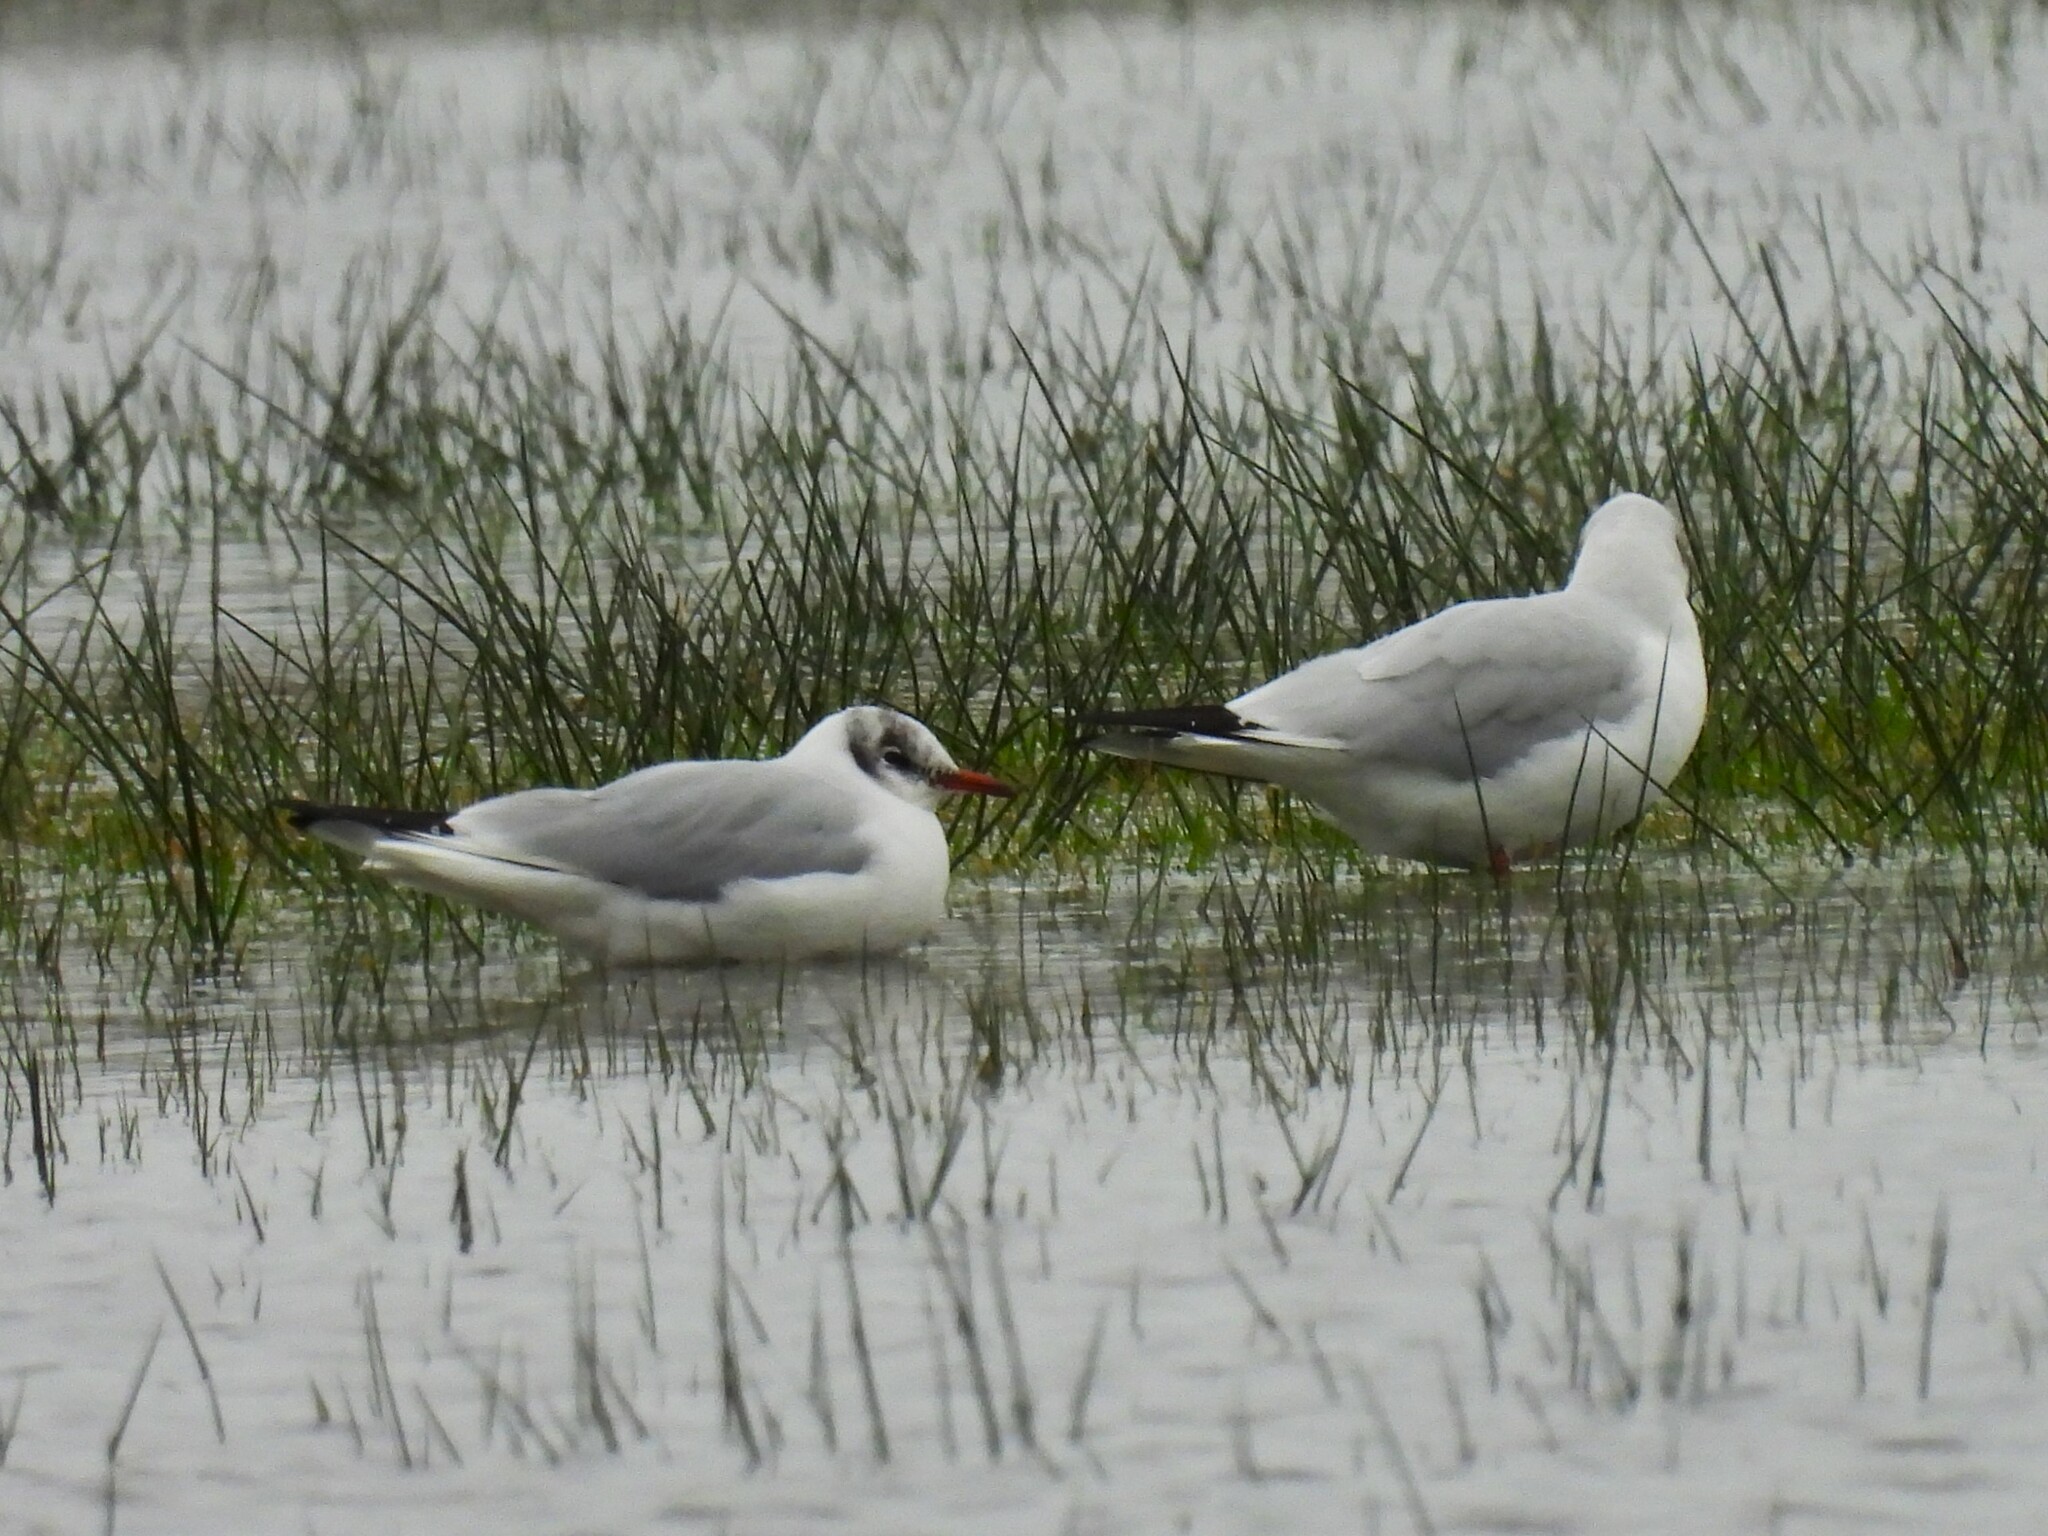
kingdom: Animalia
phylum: Chordata
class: Aves
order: Charadriiformes
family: Laridae
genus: Chroicocephalus
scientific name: Chroicocephalus ridibundus
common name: Black-headed gull
